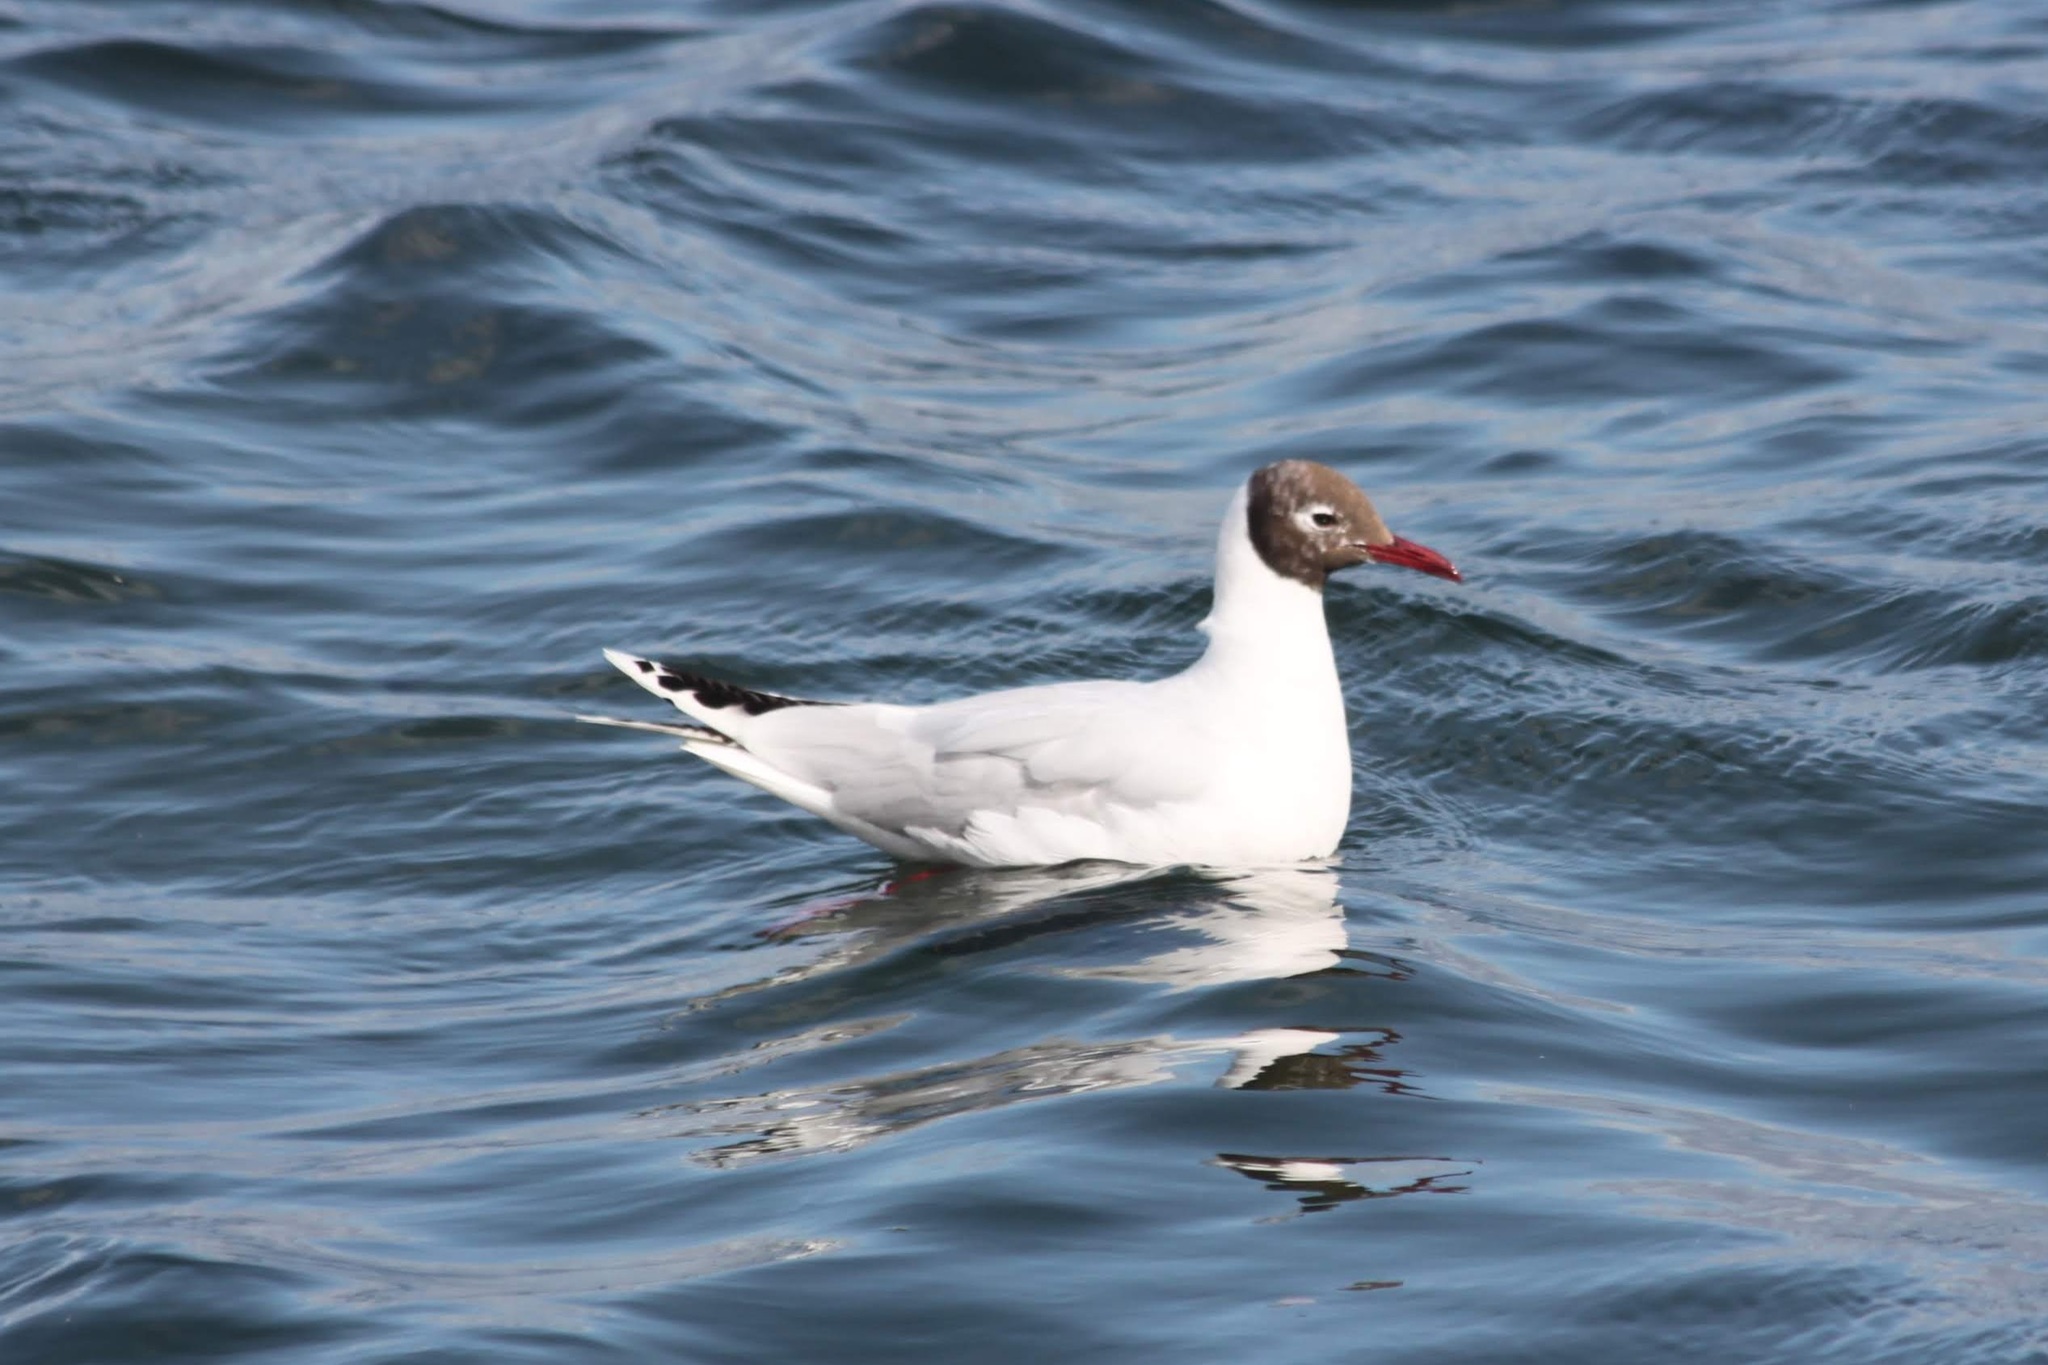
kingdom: Animalia
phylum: Chordata
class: Aves
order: Charadriiformes
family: Laridae
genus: Chroicocephalus
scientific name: Chroicocephalus maculipennis
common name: Brown-hooded gull
